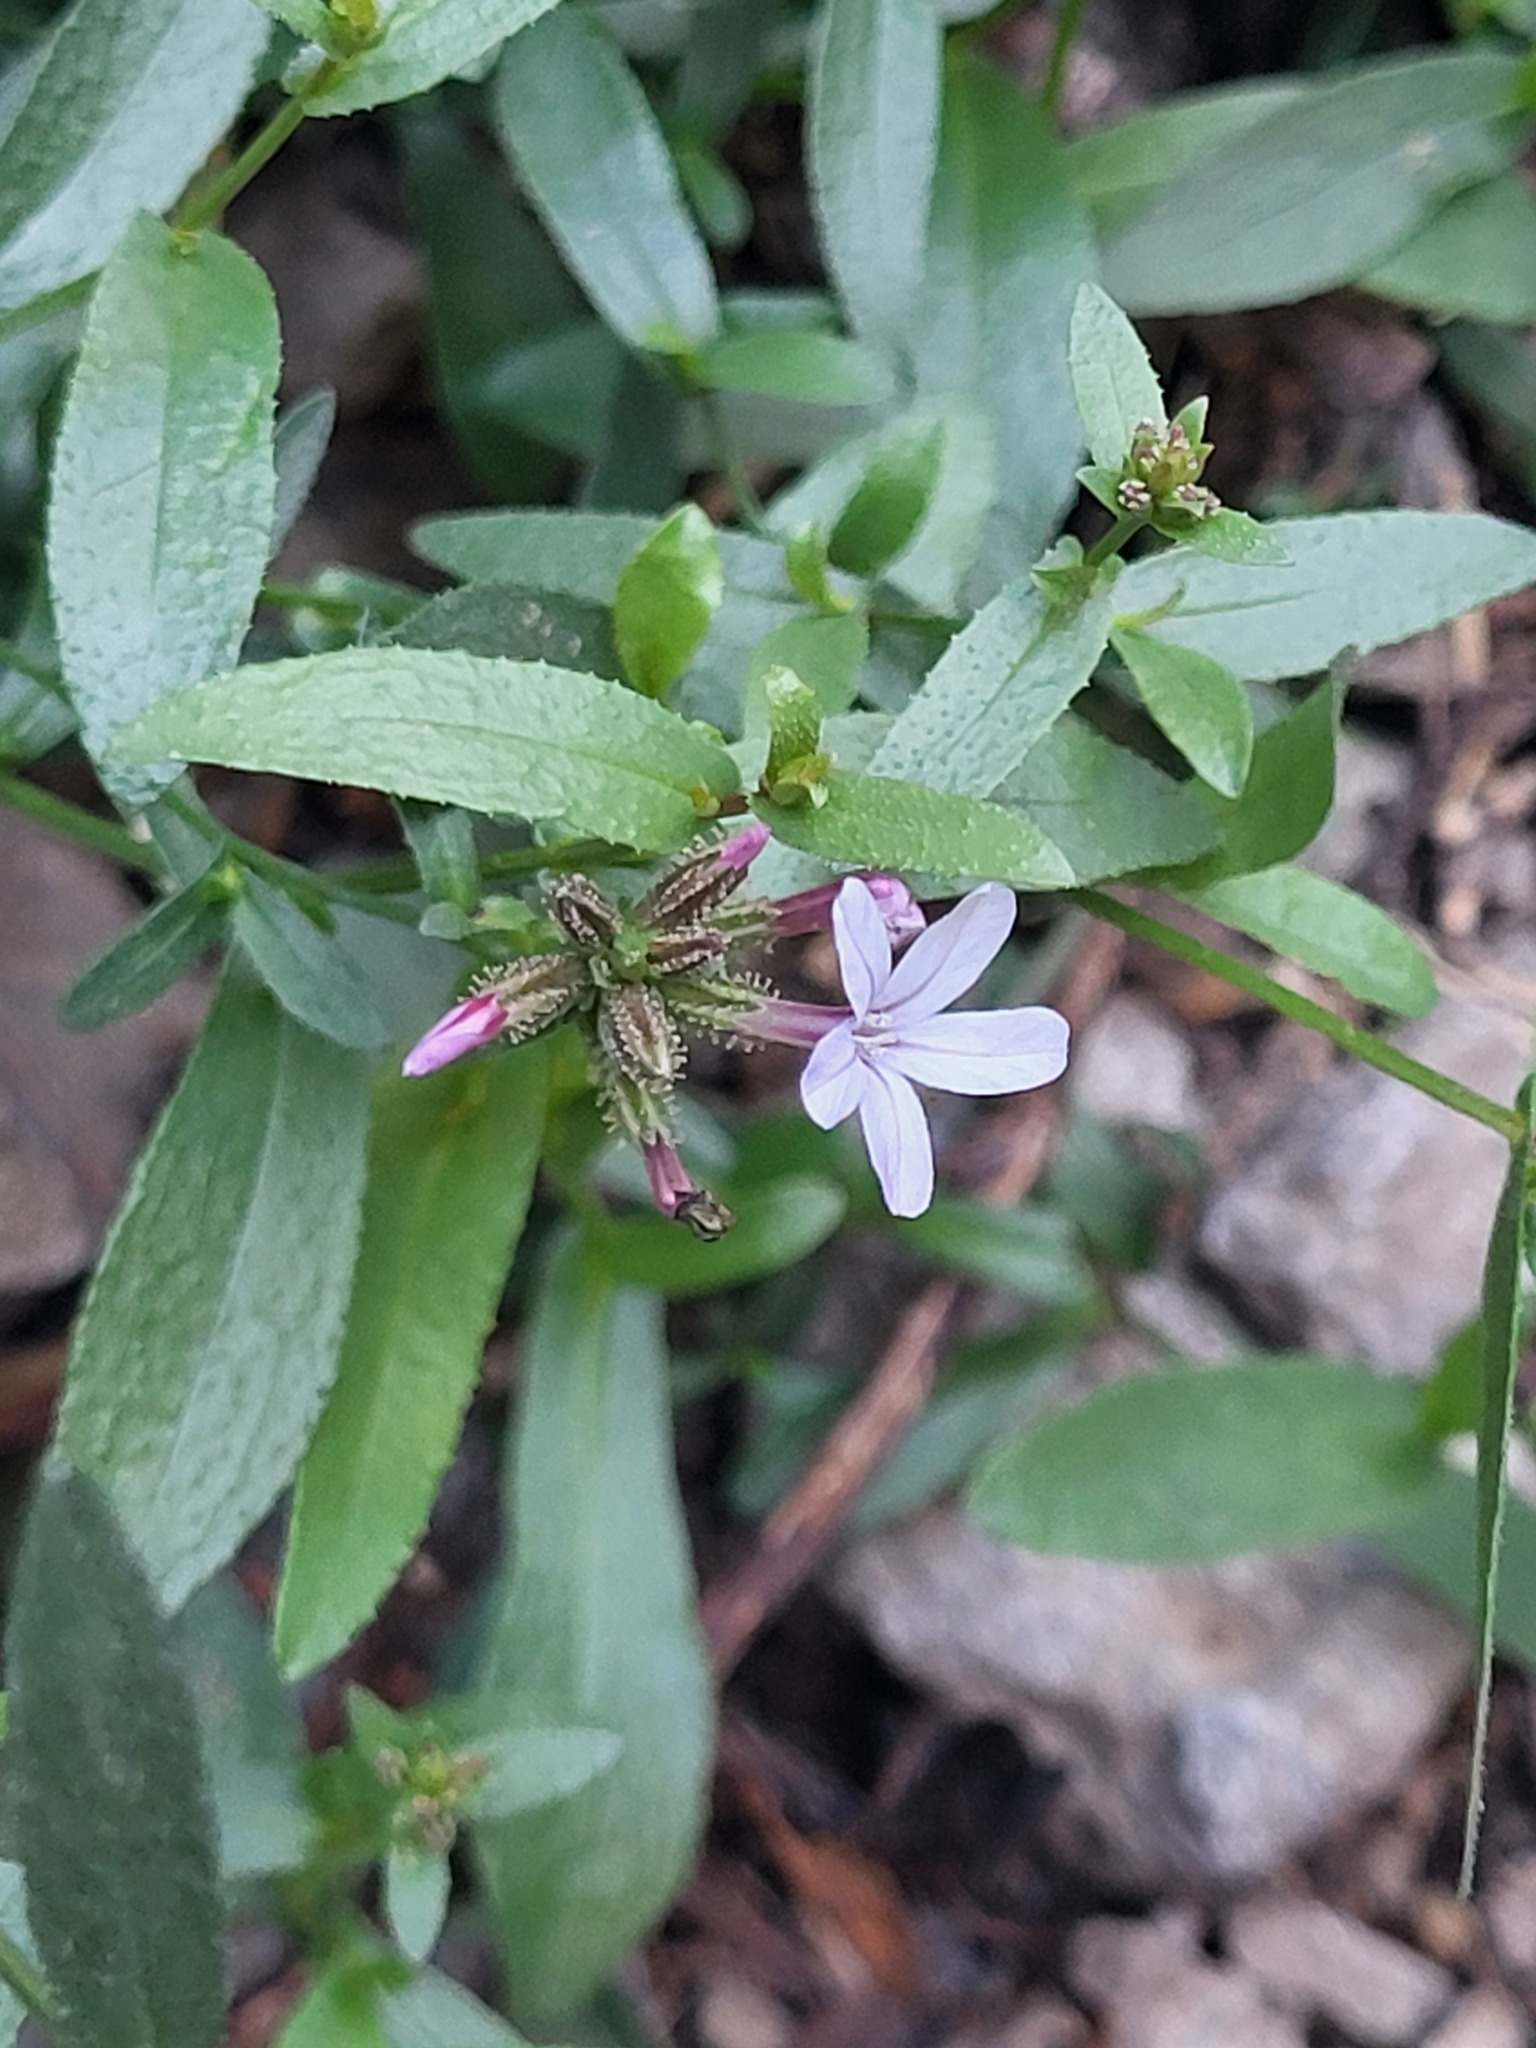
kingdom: Plantae
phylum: Tracheophyta
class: Magnoliopsida
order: Caryophyllales
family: Plumbaginaceae
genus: Plumbago
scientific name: Plumbago europaea
